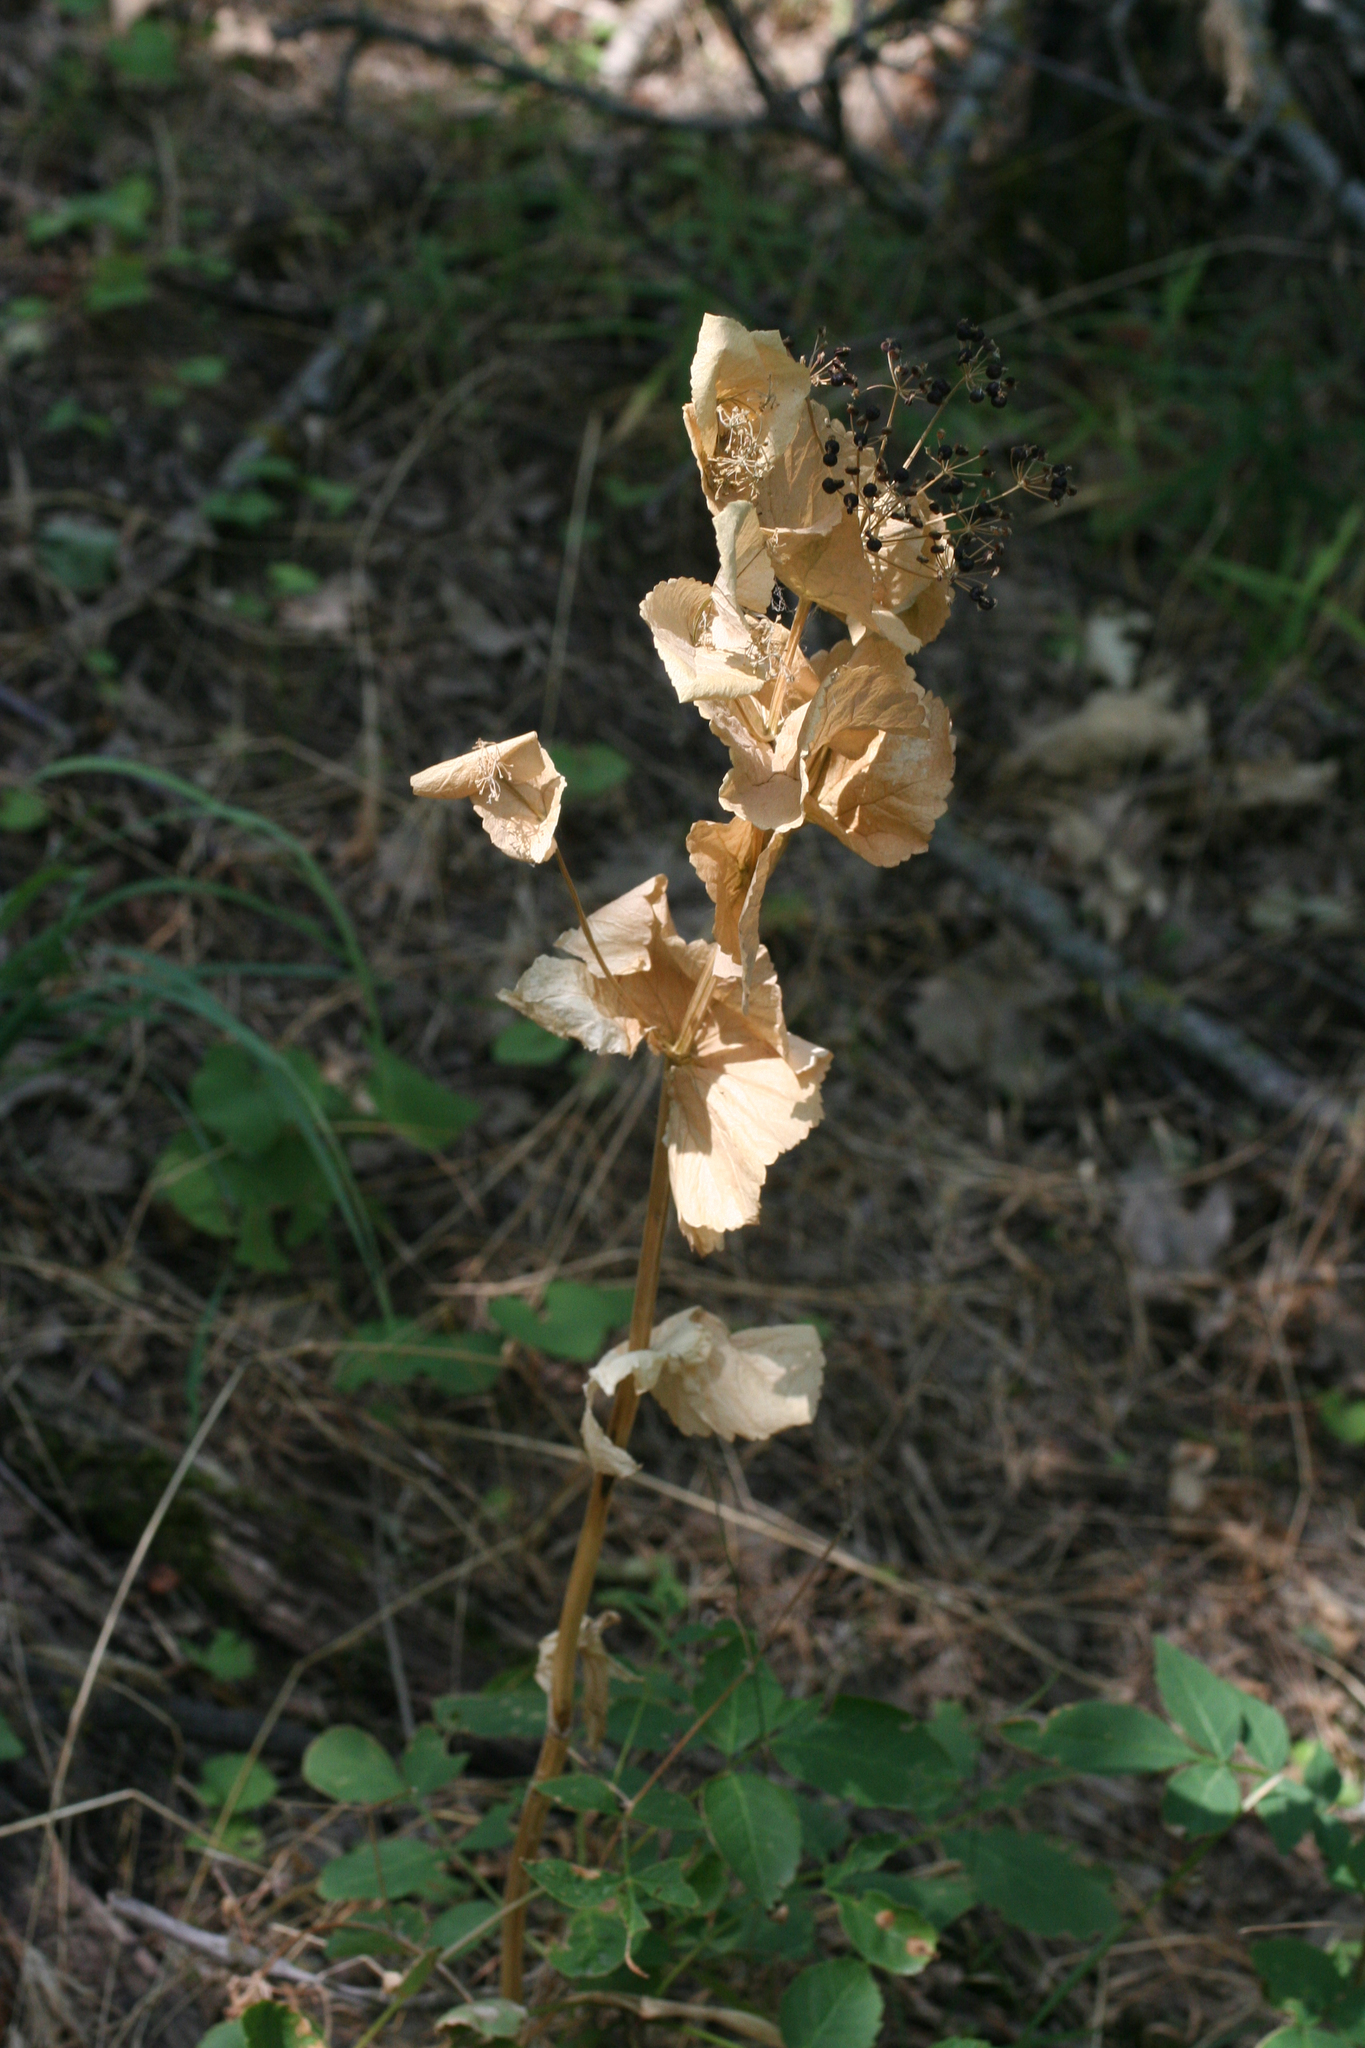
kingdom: Plantae
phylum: Tracheophyta
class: Magnoliopsida
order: Apiales
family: Apiaceae
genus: Smyrnium
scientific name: Smyrnium perfoliatum
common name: Perfoliate alexanders
